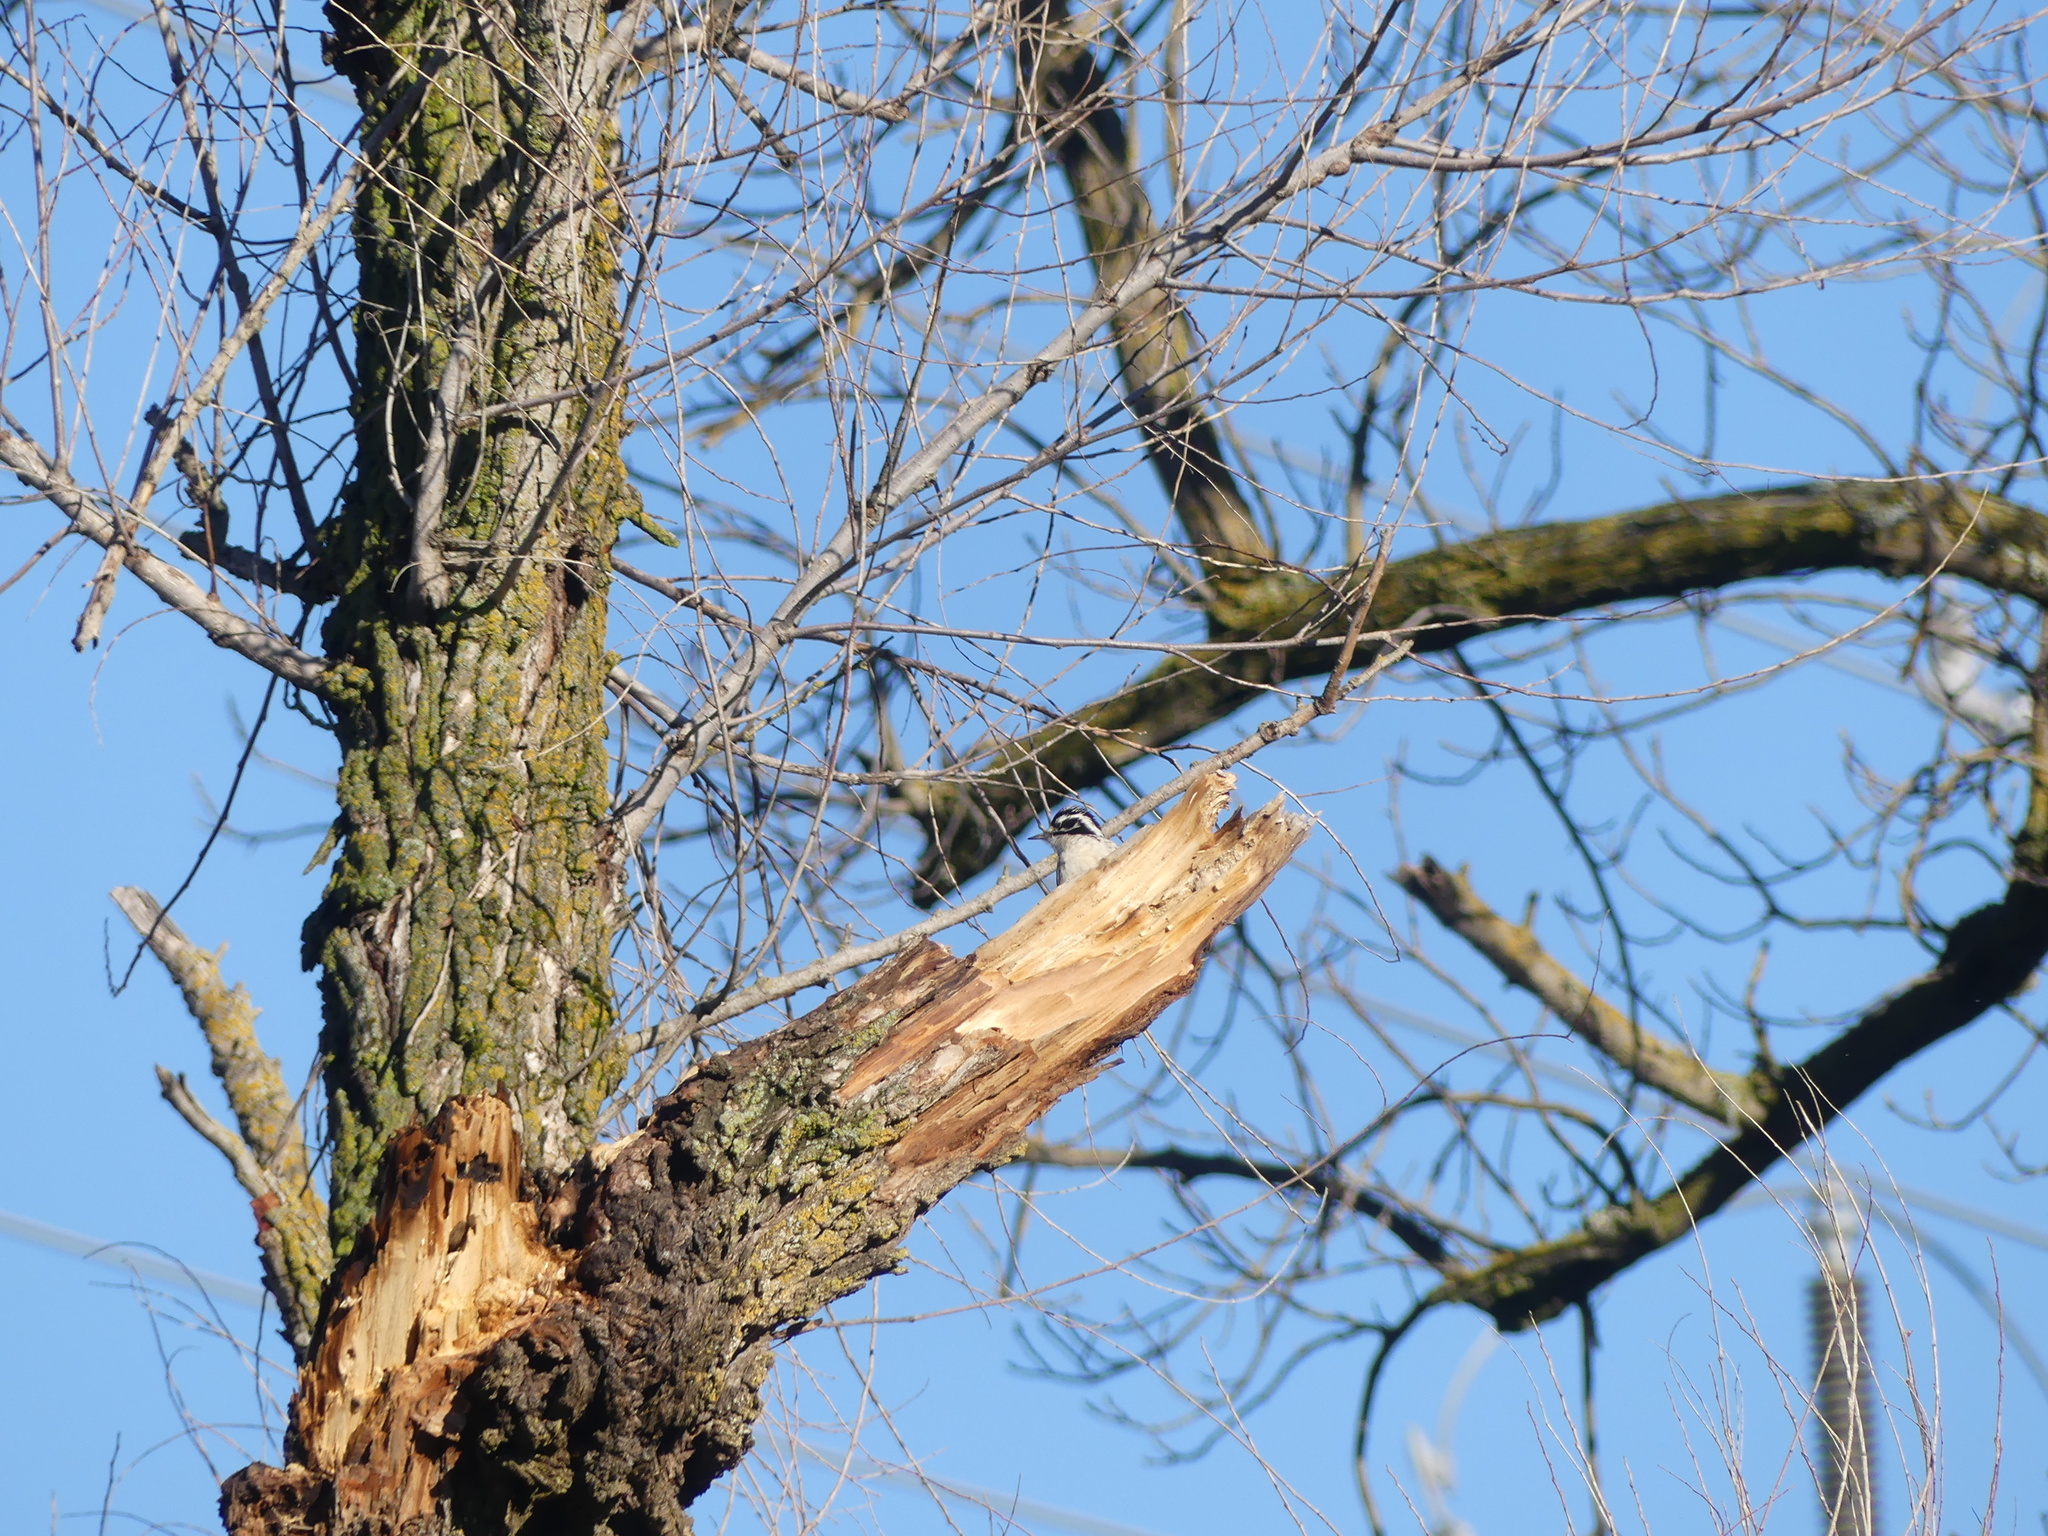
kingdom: Animalia
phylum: Chordata
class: Aves
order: Piciformes
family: Picidae
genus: Dryobates
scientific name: Dryobates nuttallii
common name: Nuttall's woodpecker
